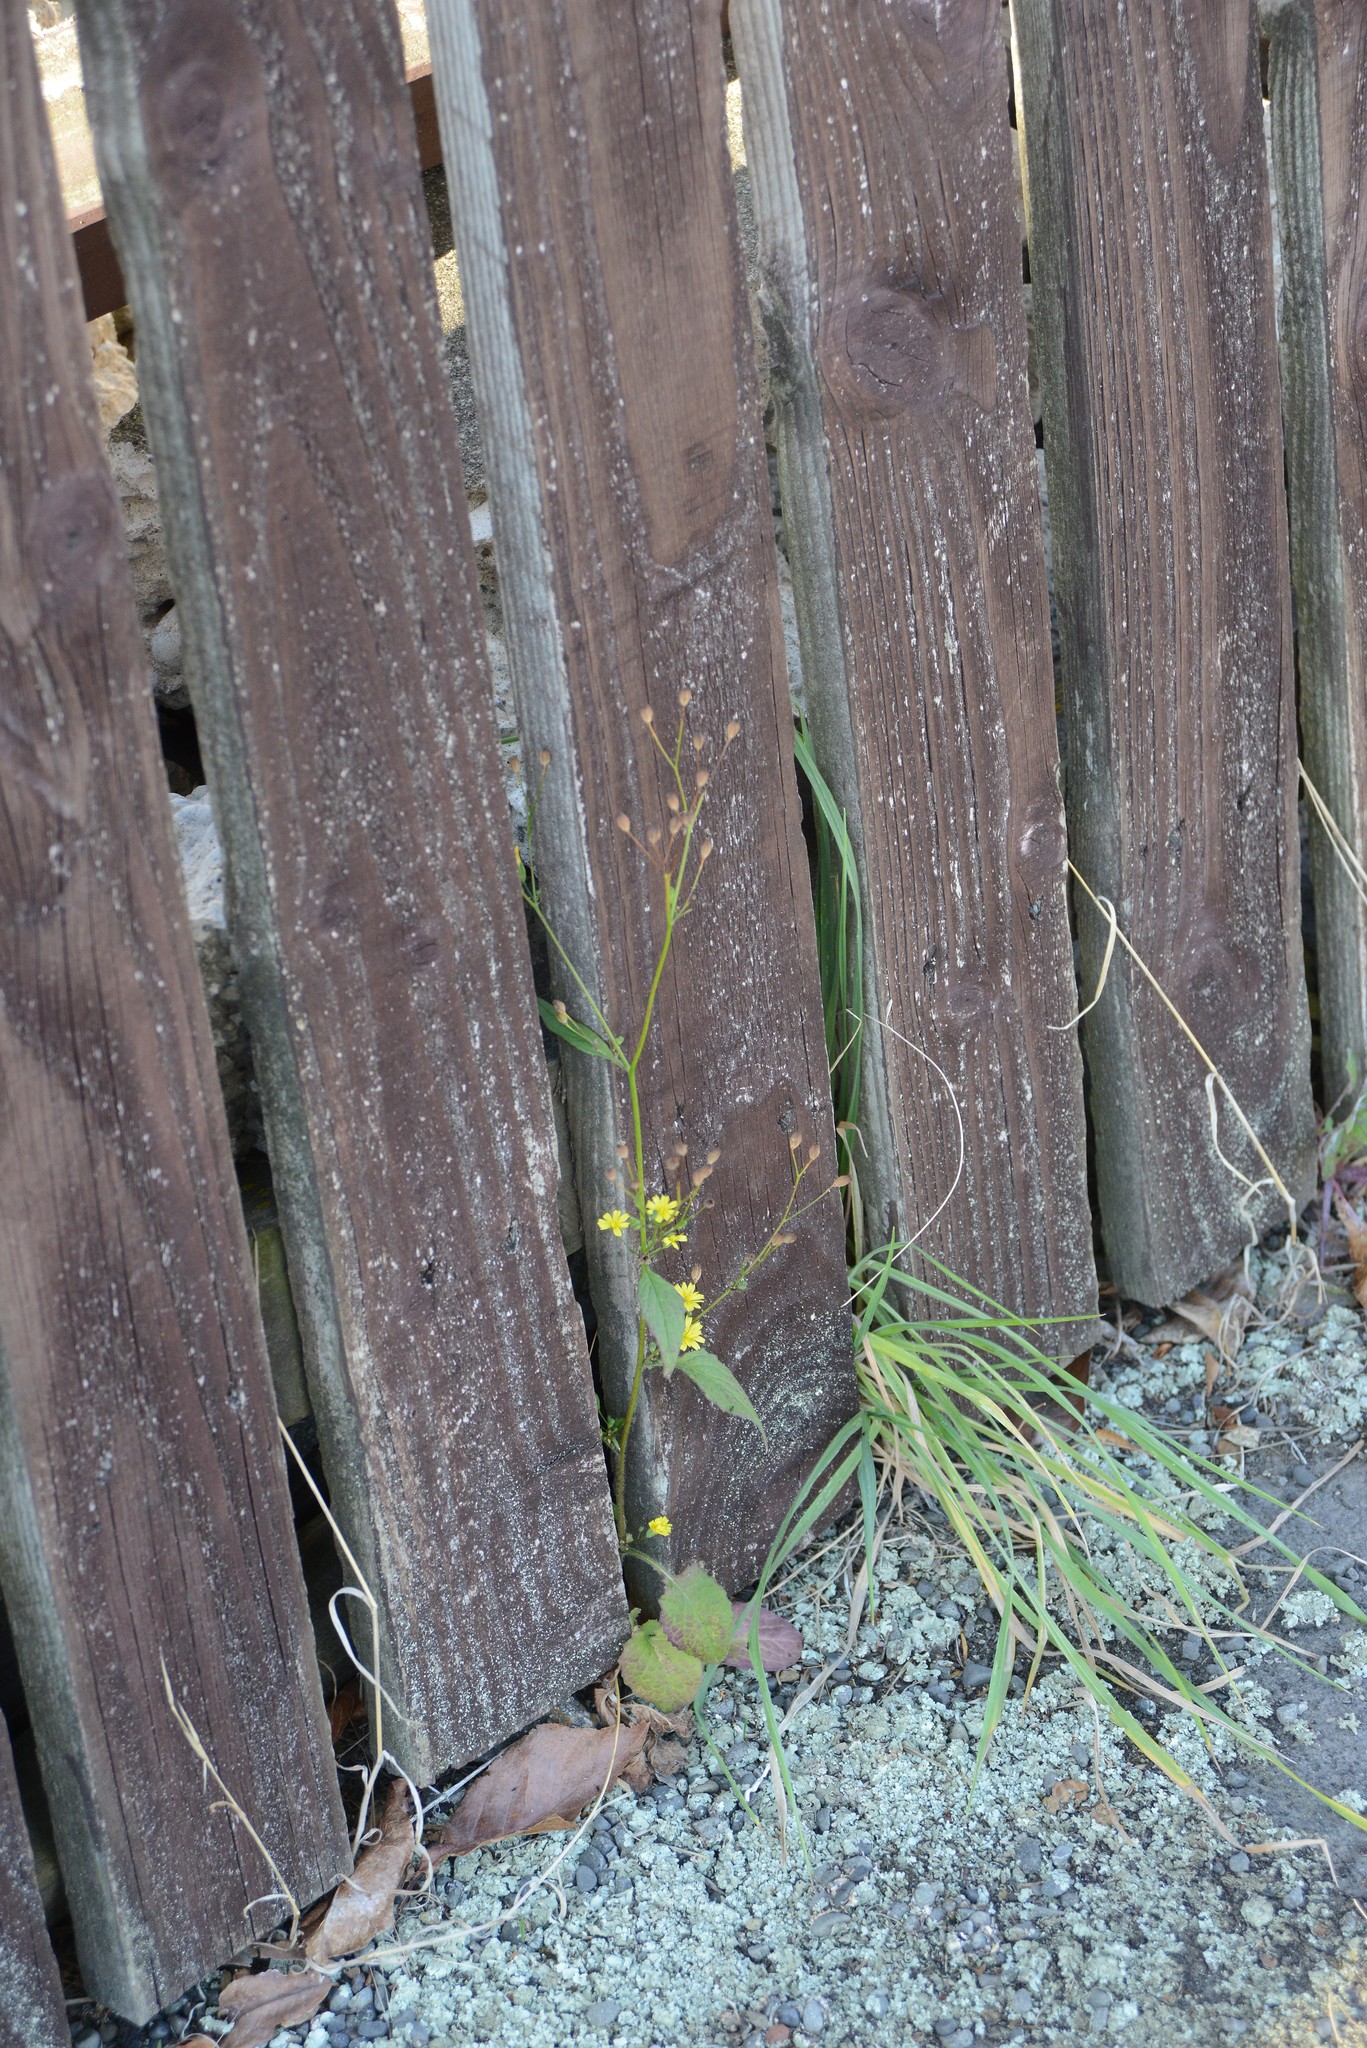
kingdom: Plantae
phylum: Tracheophyta
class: Magnoliopsida
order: Asterales
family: Asteraceae
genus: Lapsana
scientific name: Lapsana communis
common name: Nipplewort
